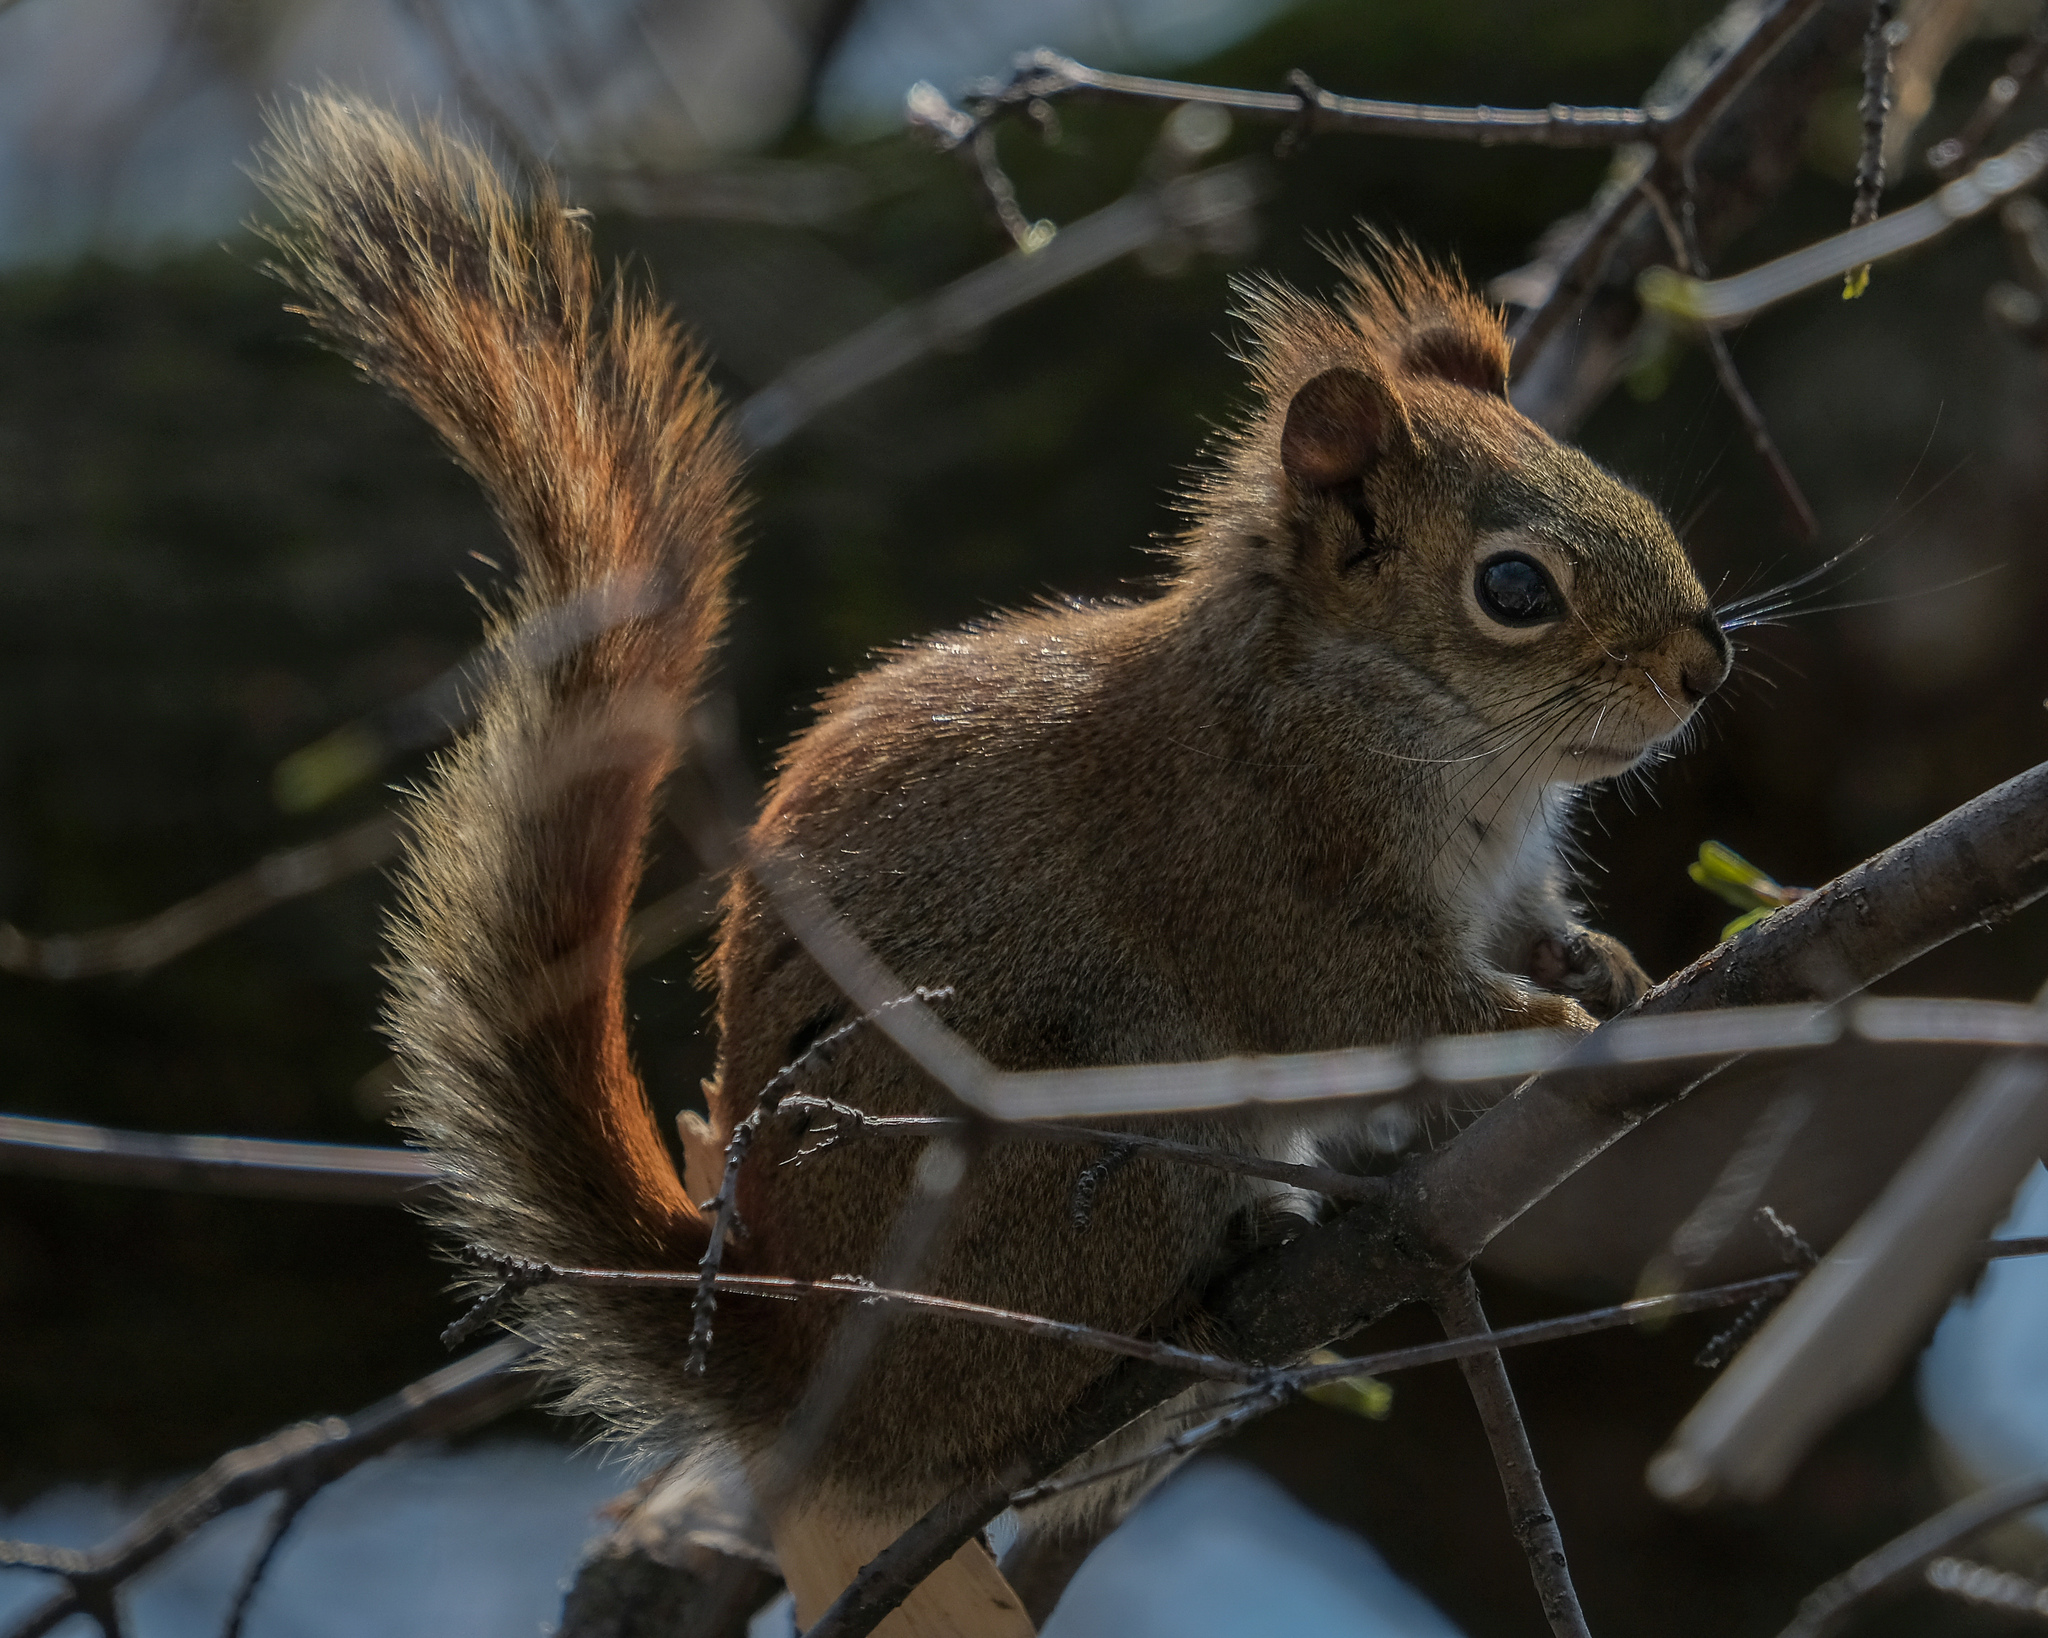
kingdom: Animalia
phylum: Chordata
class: Mammalia
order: Rodentia
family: Sciuridae
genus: Tamiasciurus
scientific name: Tamiasciurus hudsonicus
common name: Red squirrel
